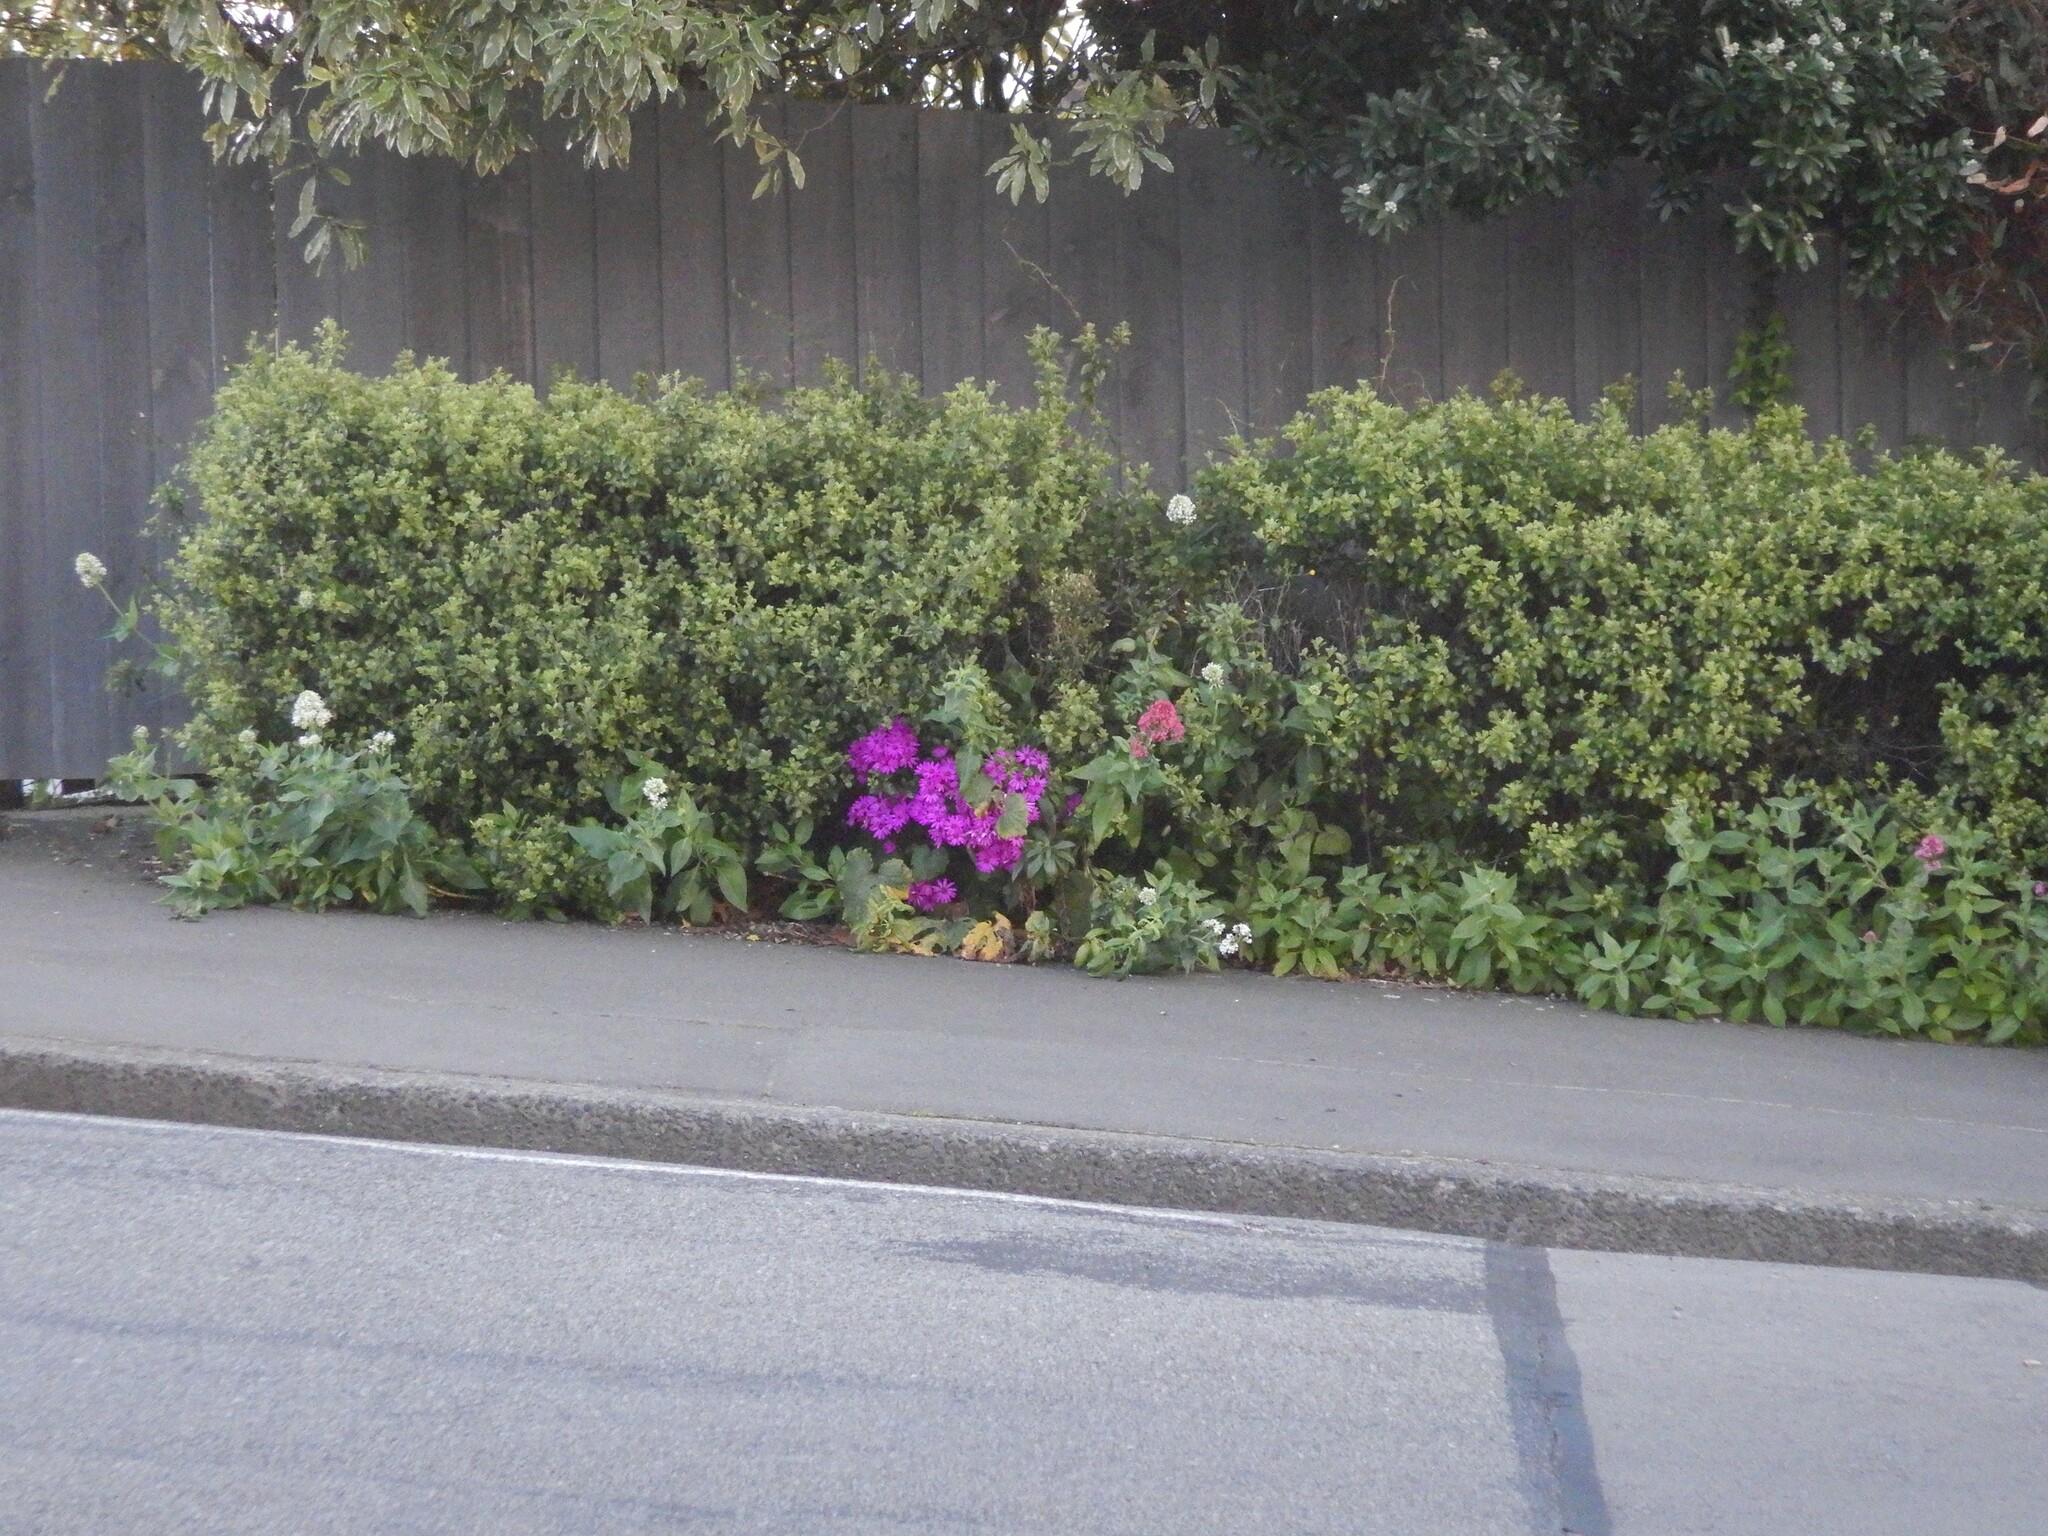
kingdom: Plantae
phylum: Tracheophyta
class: Magnoliopsida
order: Asterales
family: Asteraceae
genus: Pericallis
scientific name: Pericallis hybrida
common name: Cineraria
